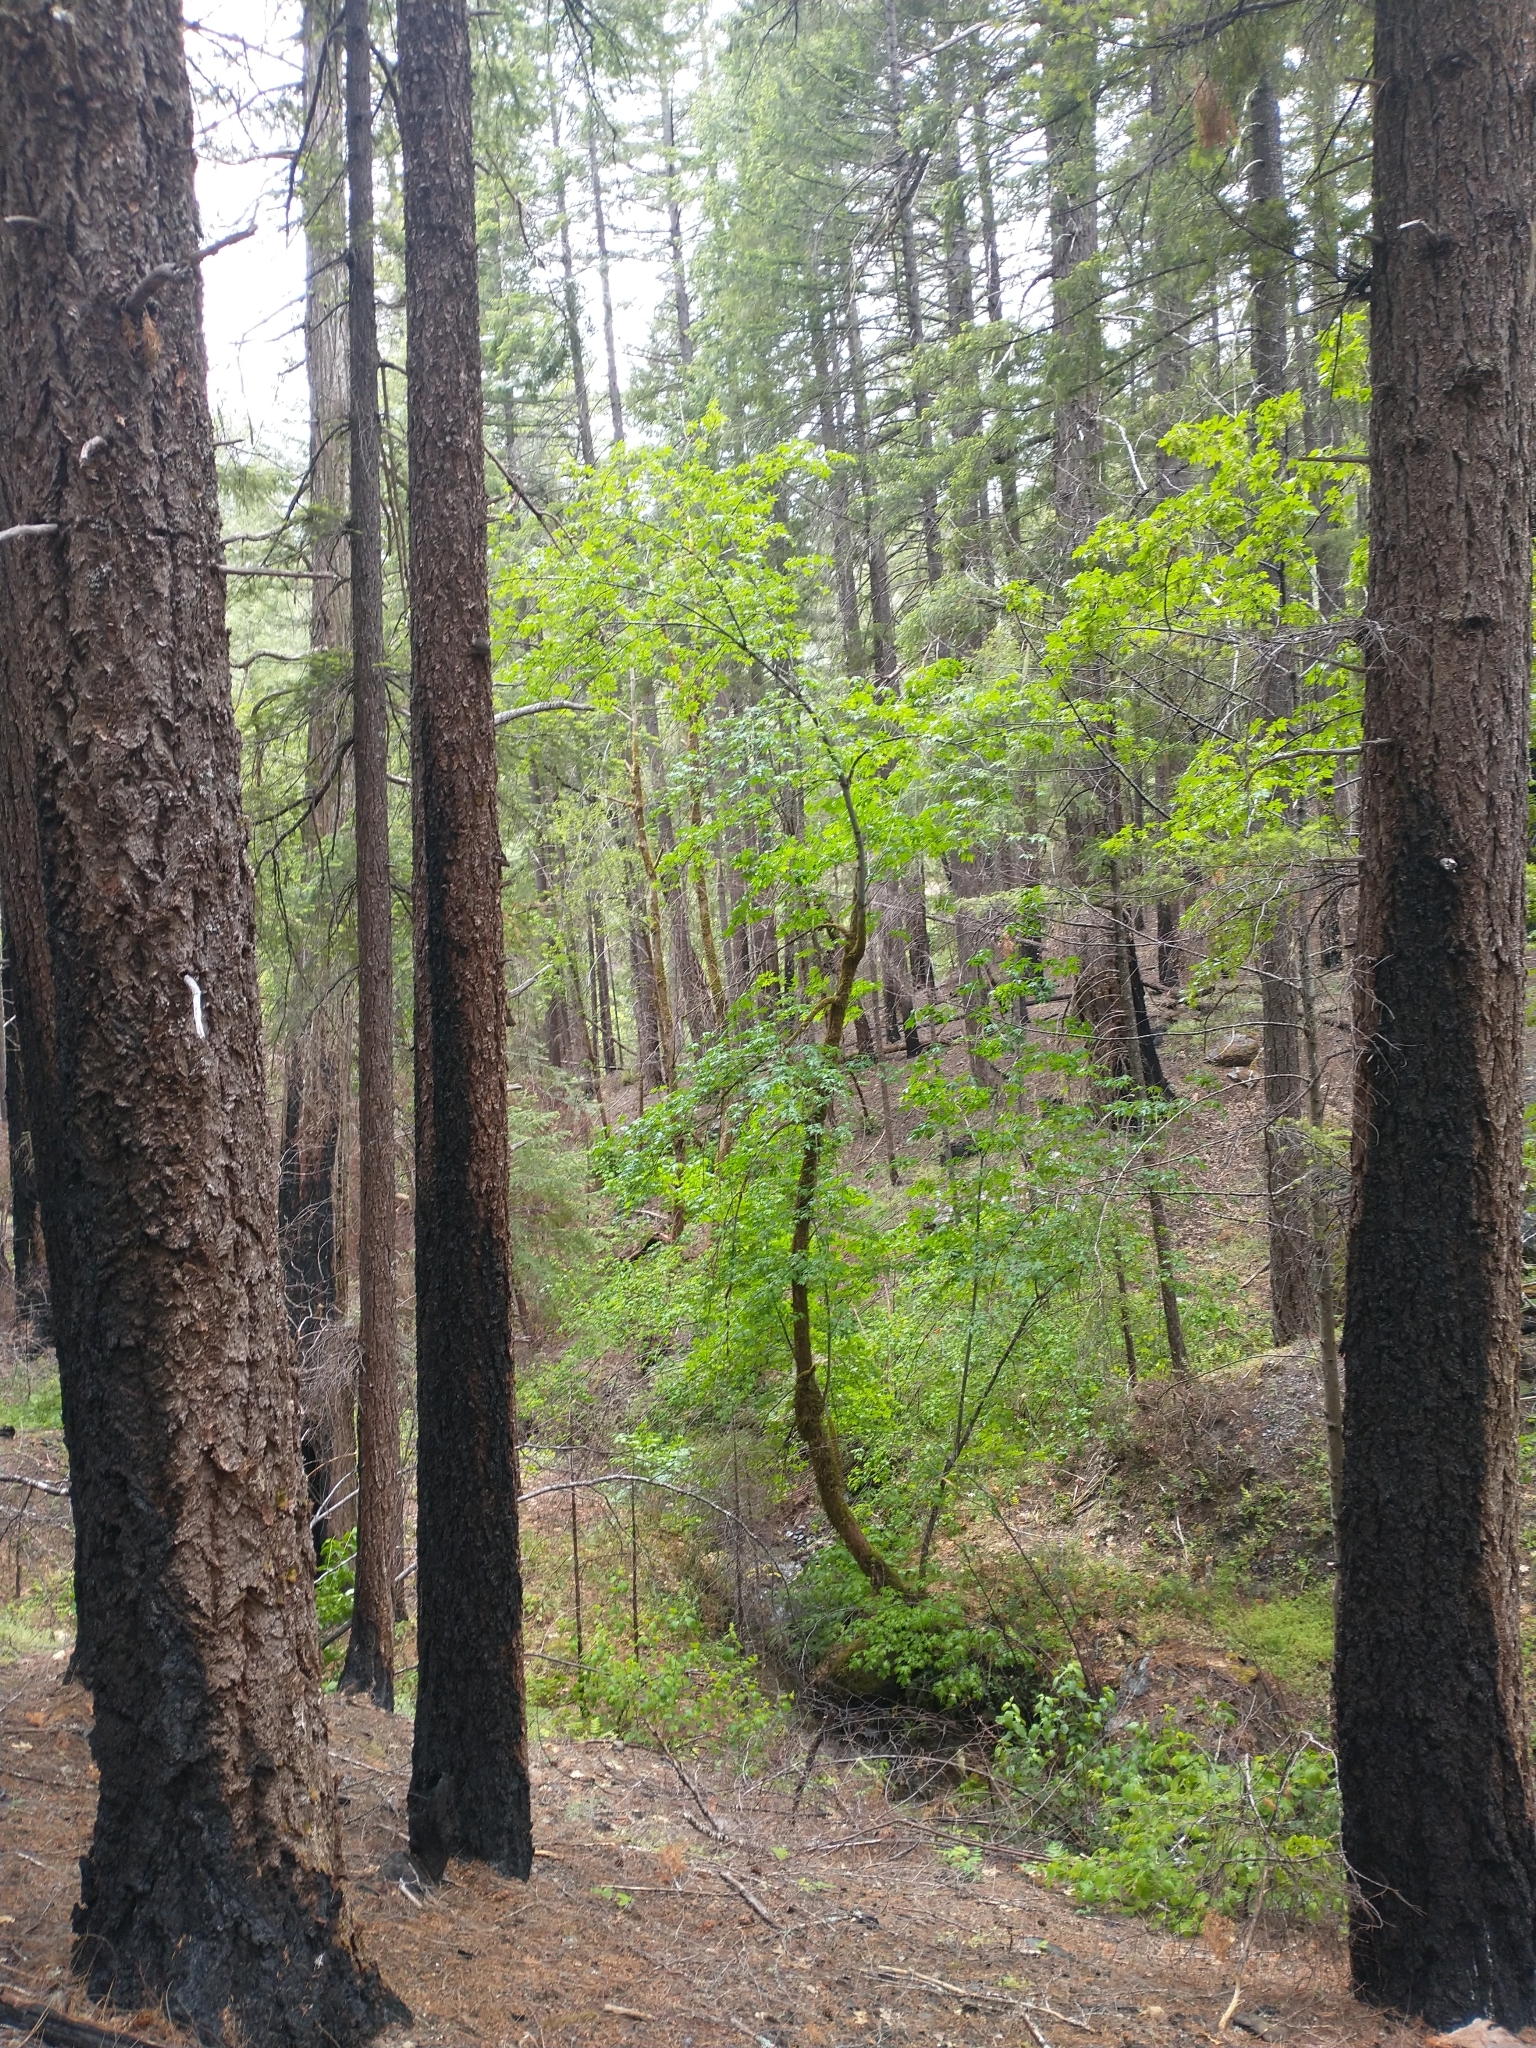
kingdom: Plantae
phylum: Tracheophyta
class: Magnoliopsida
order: Sapindales
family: Sapindaceae
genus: Acer
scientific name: Acer macrophyllum
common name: Oregon maple
